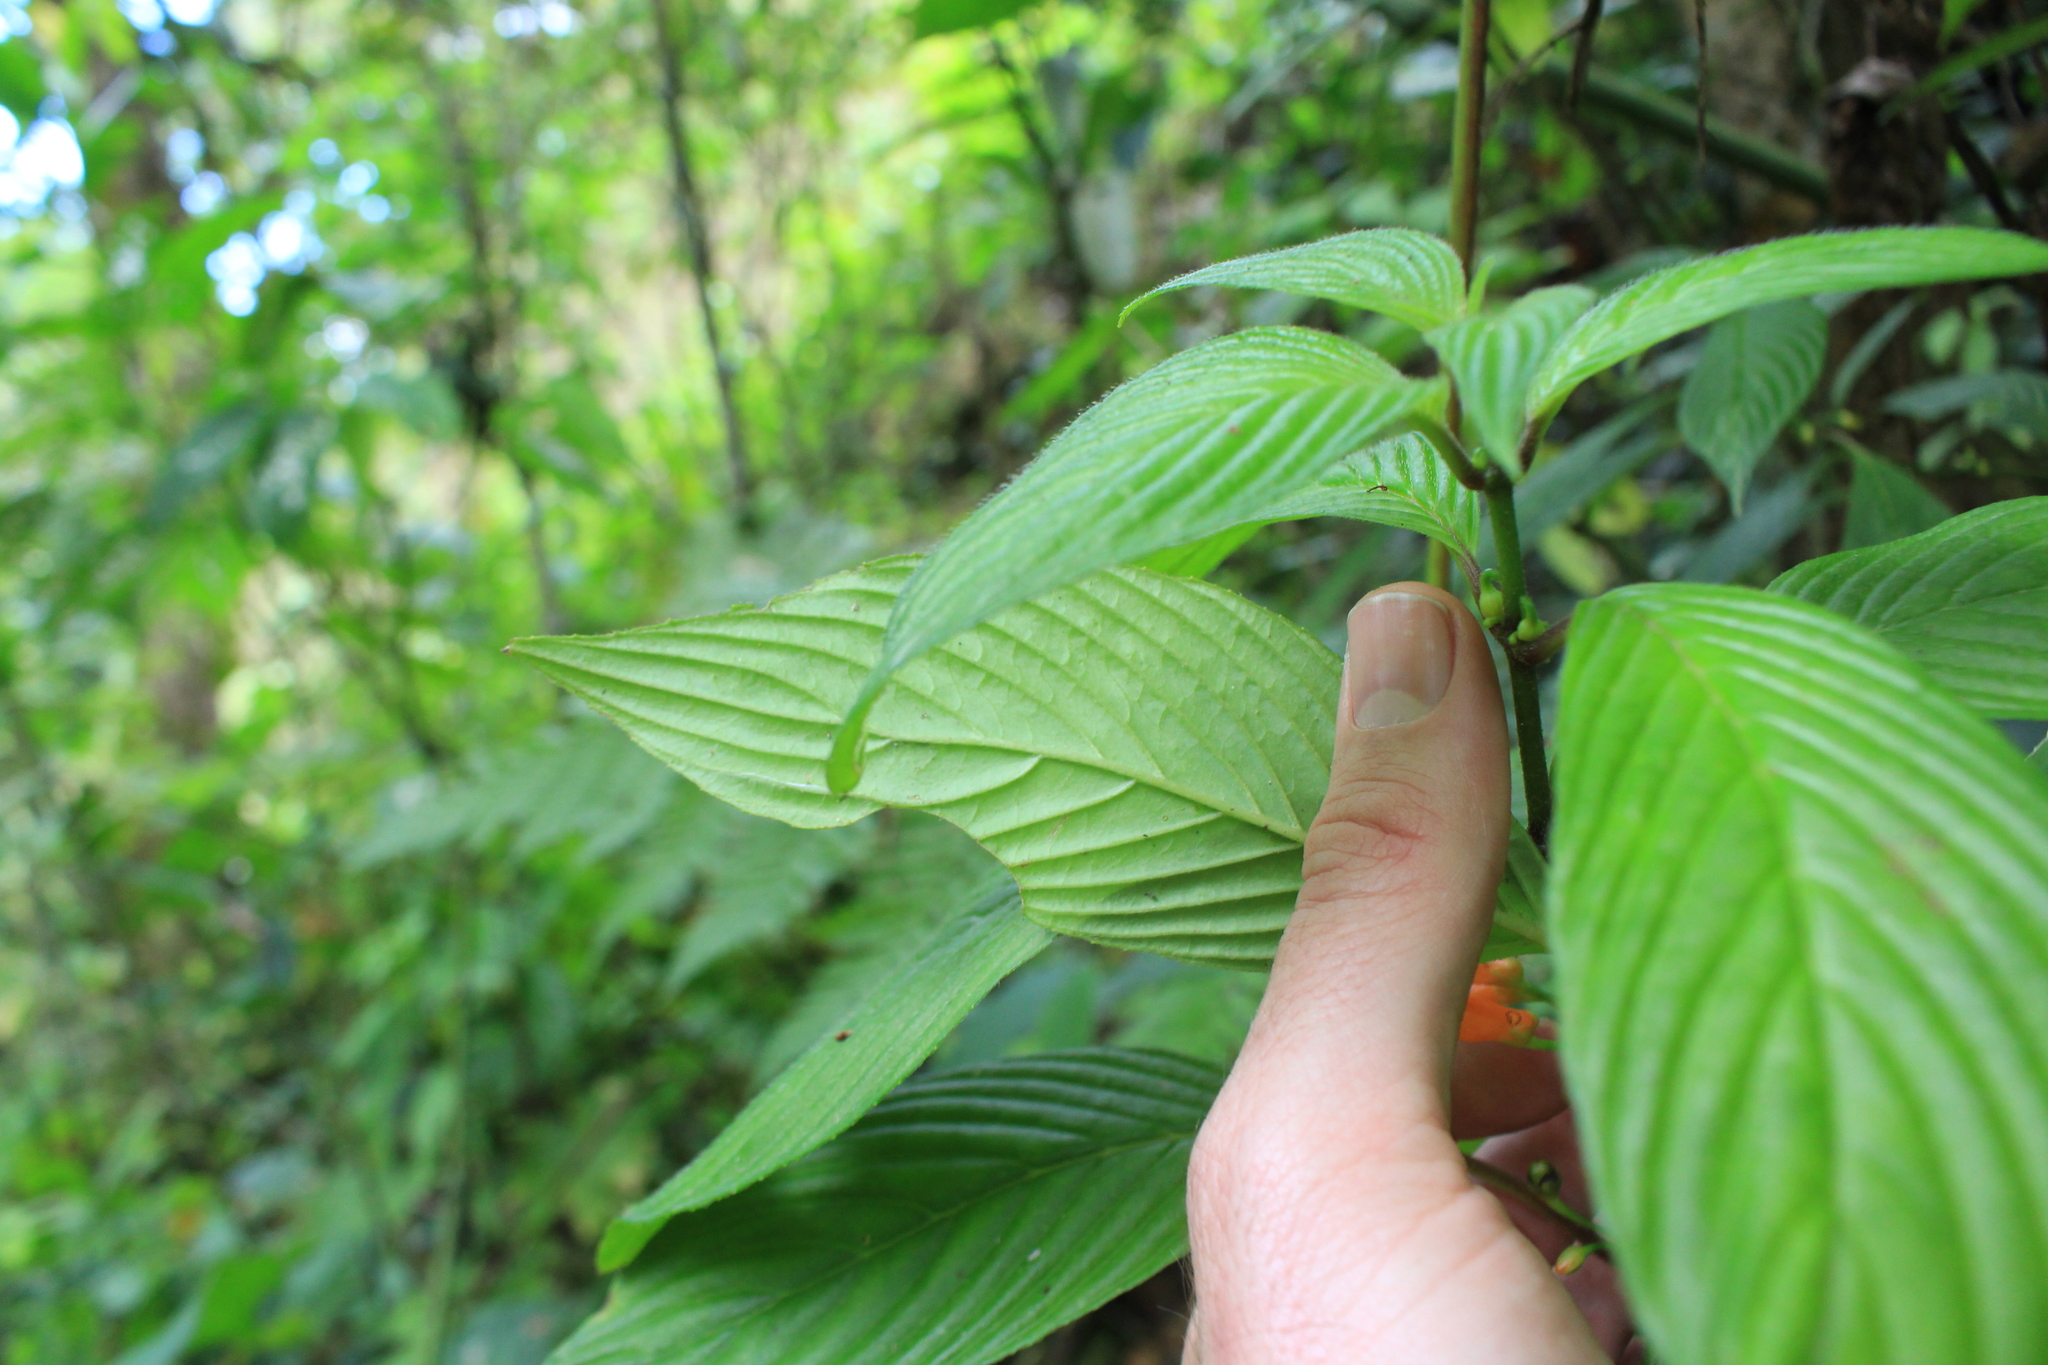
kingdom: Plantae
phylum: Tracheophyta
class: Magnoliopsida
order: Lamiales
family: Gesneriaceae
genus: Besleria
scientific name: Besleria solanoides
